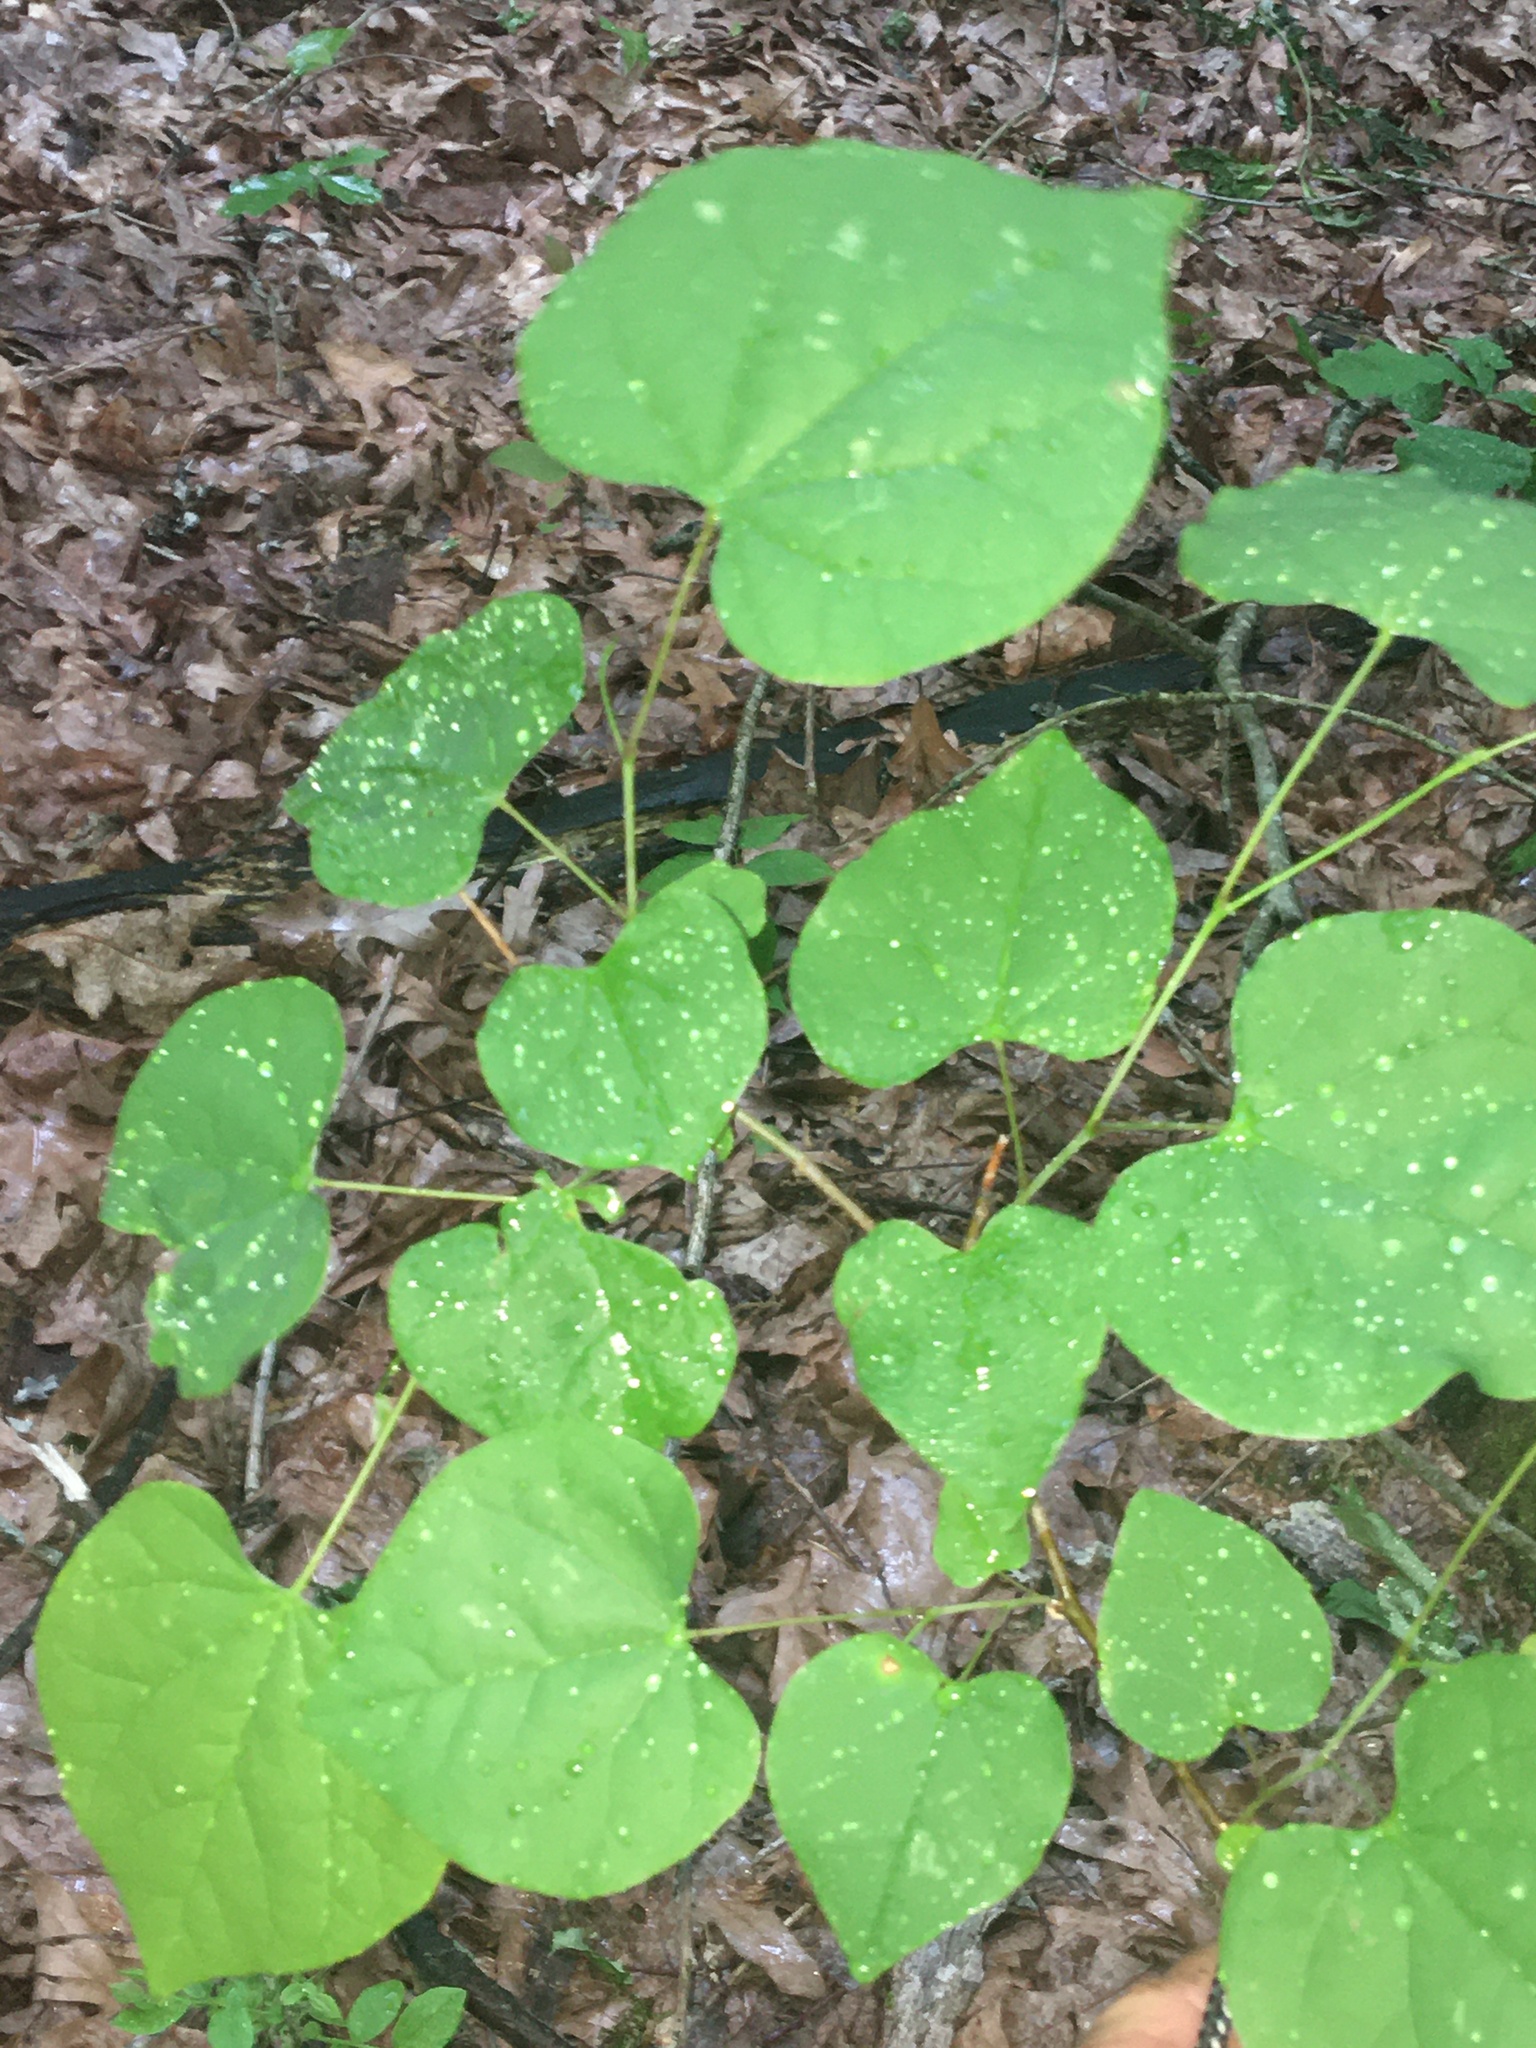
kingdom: Plantae
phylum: Tracheophyta
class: Magnoliopsida
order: Fabales
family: Fabaceae
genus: Cercis
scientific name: Cercis canadensis
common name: Eastern redbud
